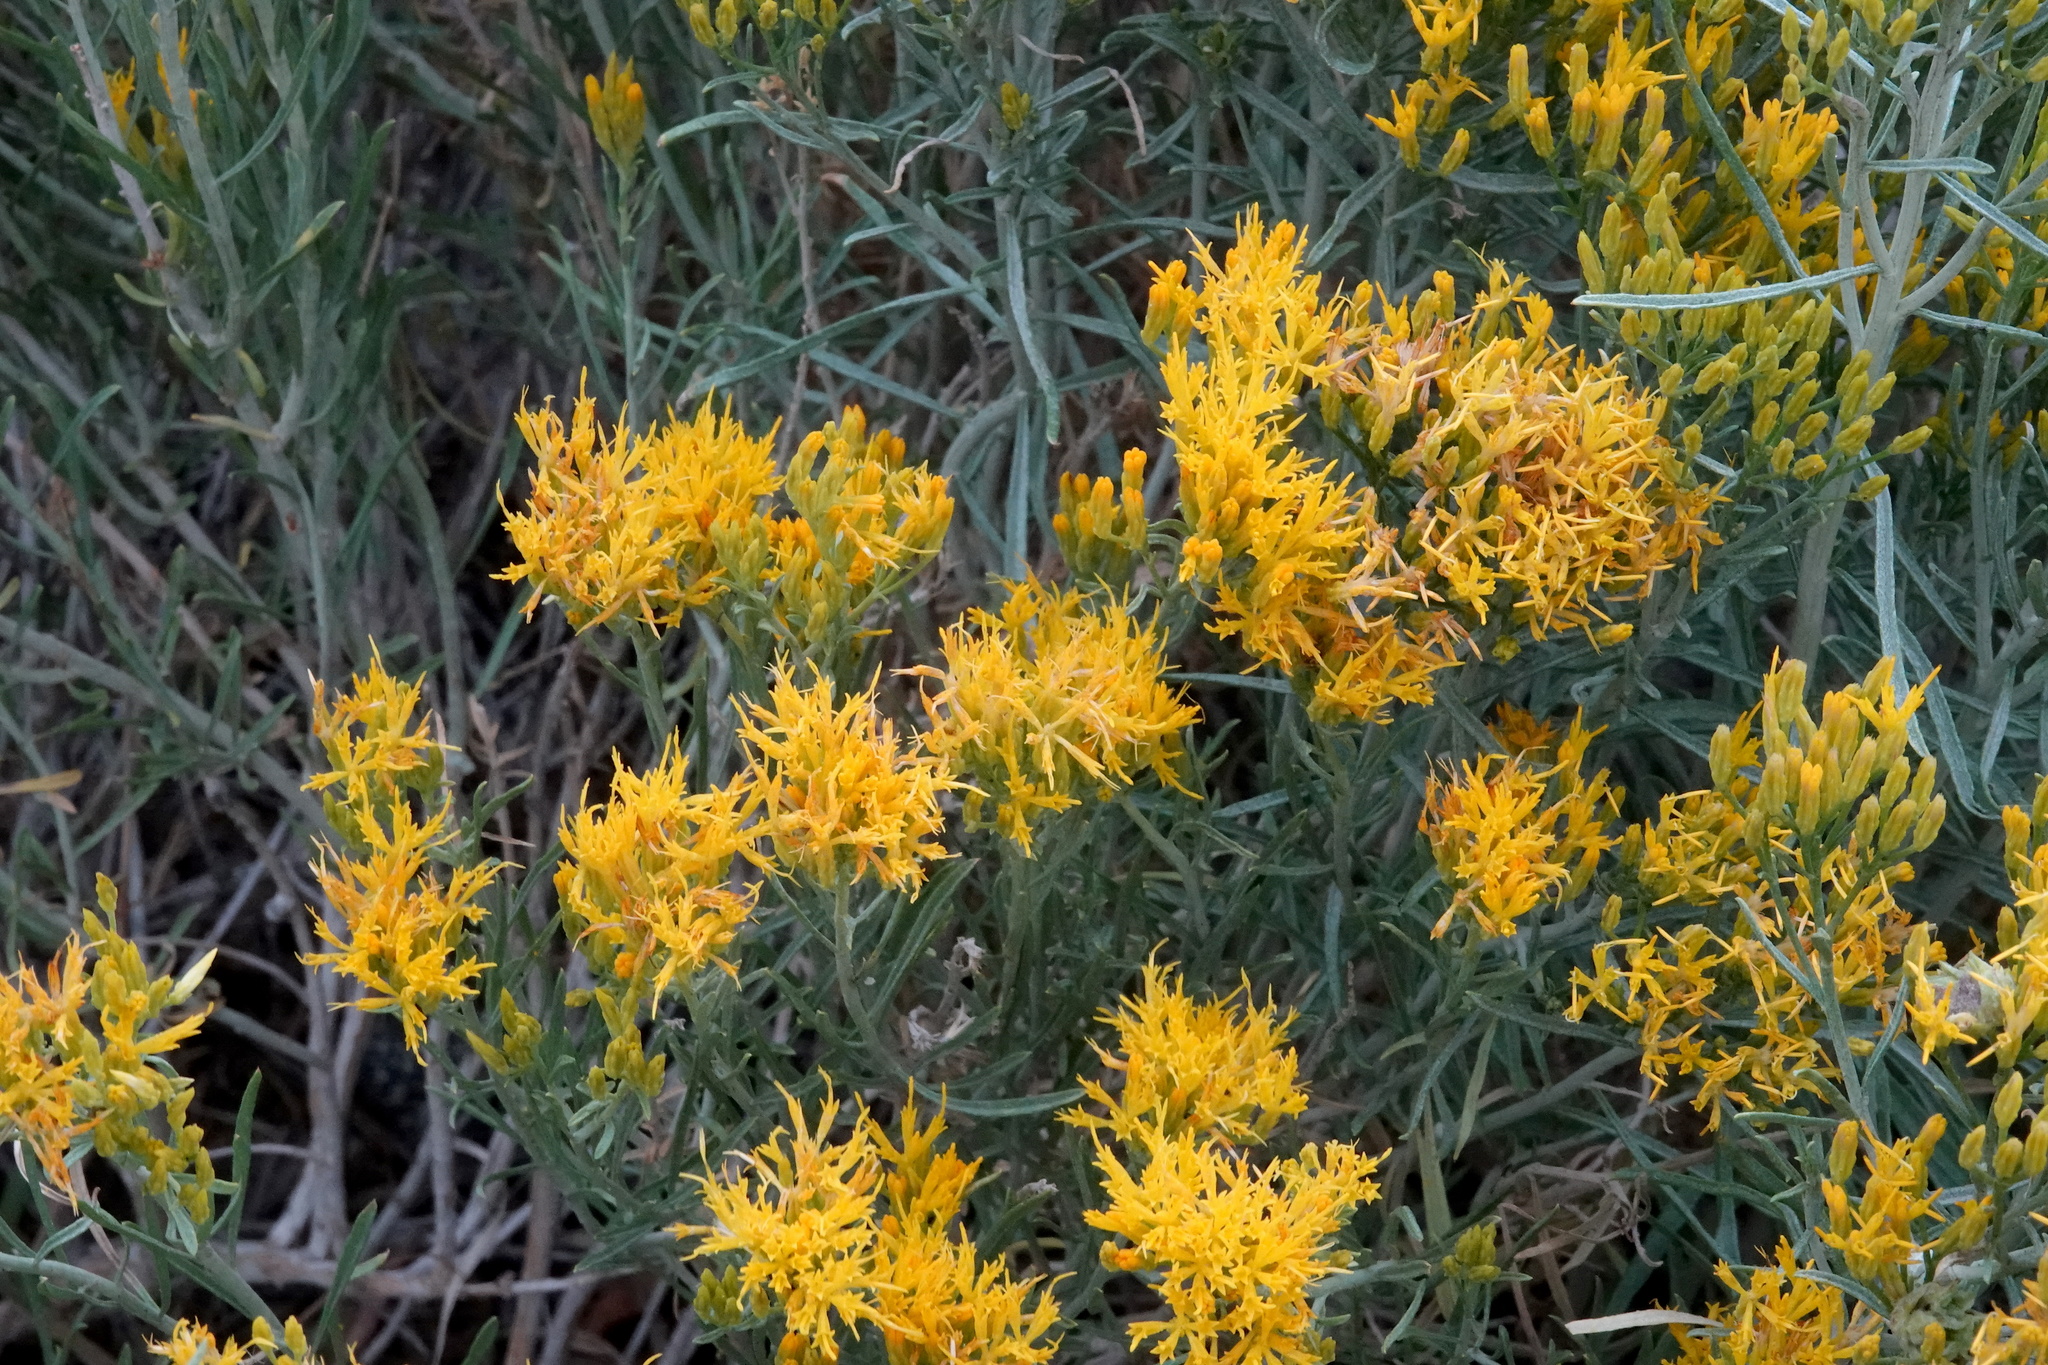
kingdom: Plantae
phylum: Tracheophyta
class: Magnoliopsida
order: Asterales
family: Asteraceae
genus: Ericameria
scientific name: Ericameria nauseosa
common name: Rubber rabbitbrush
